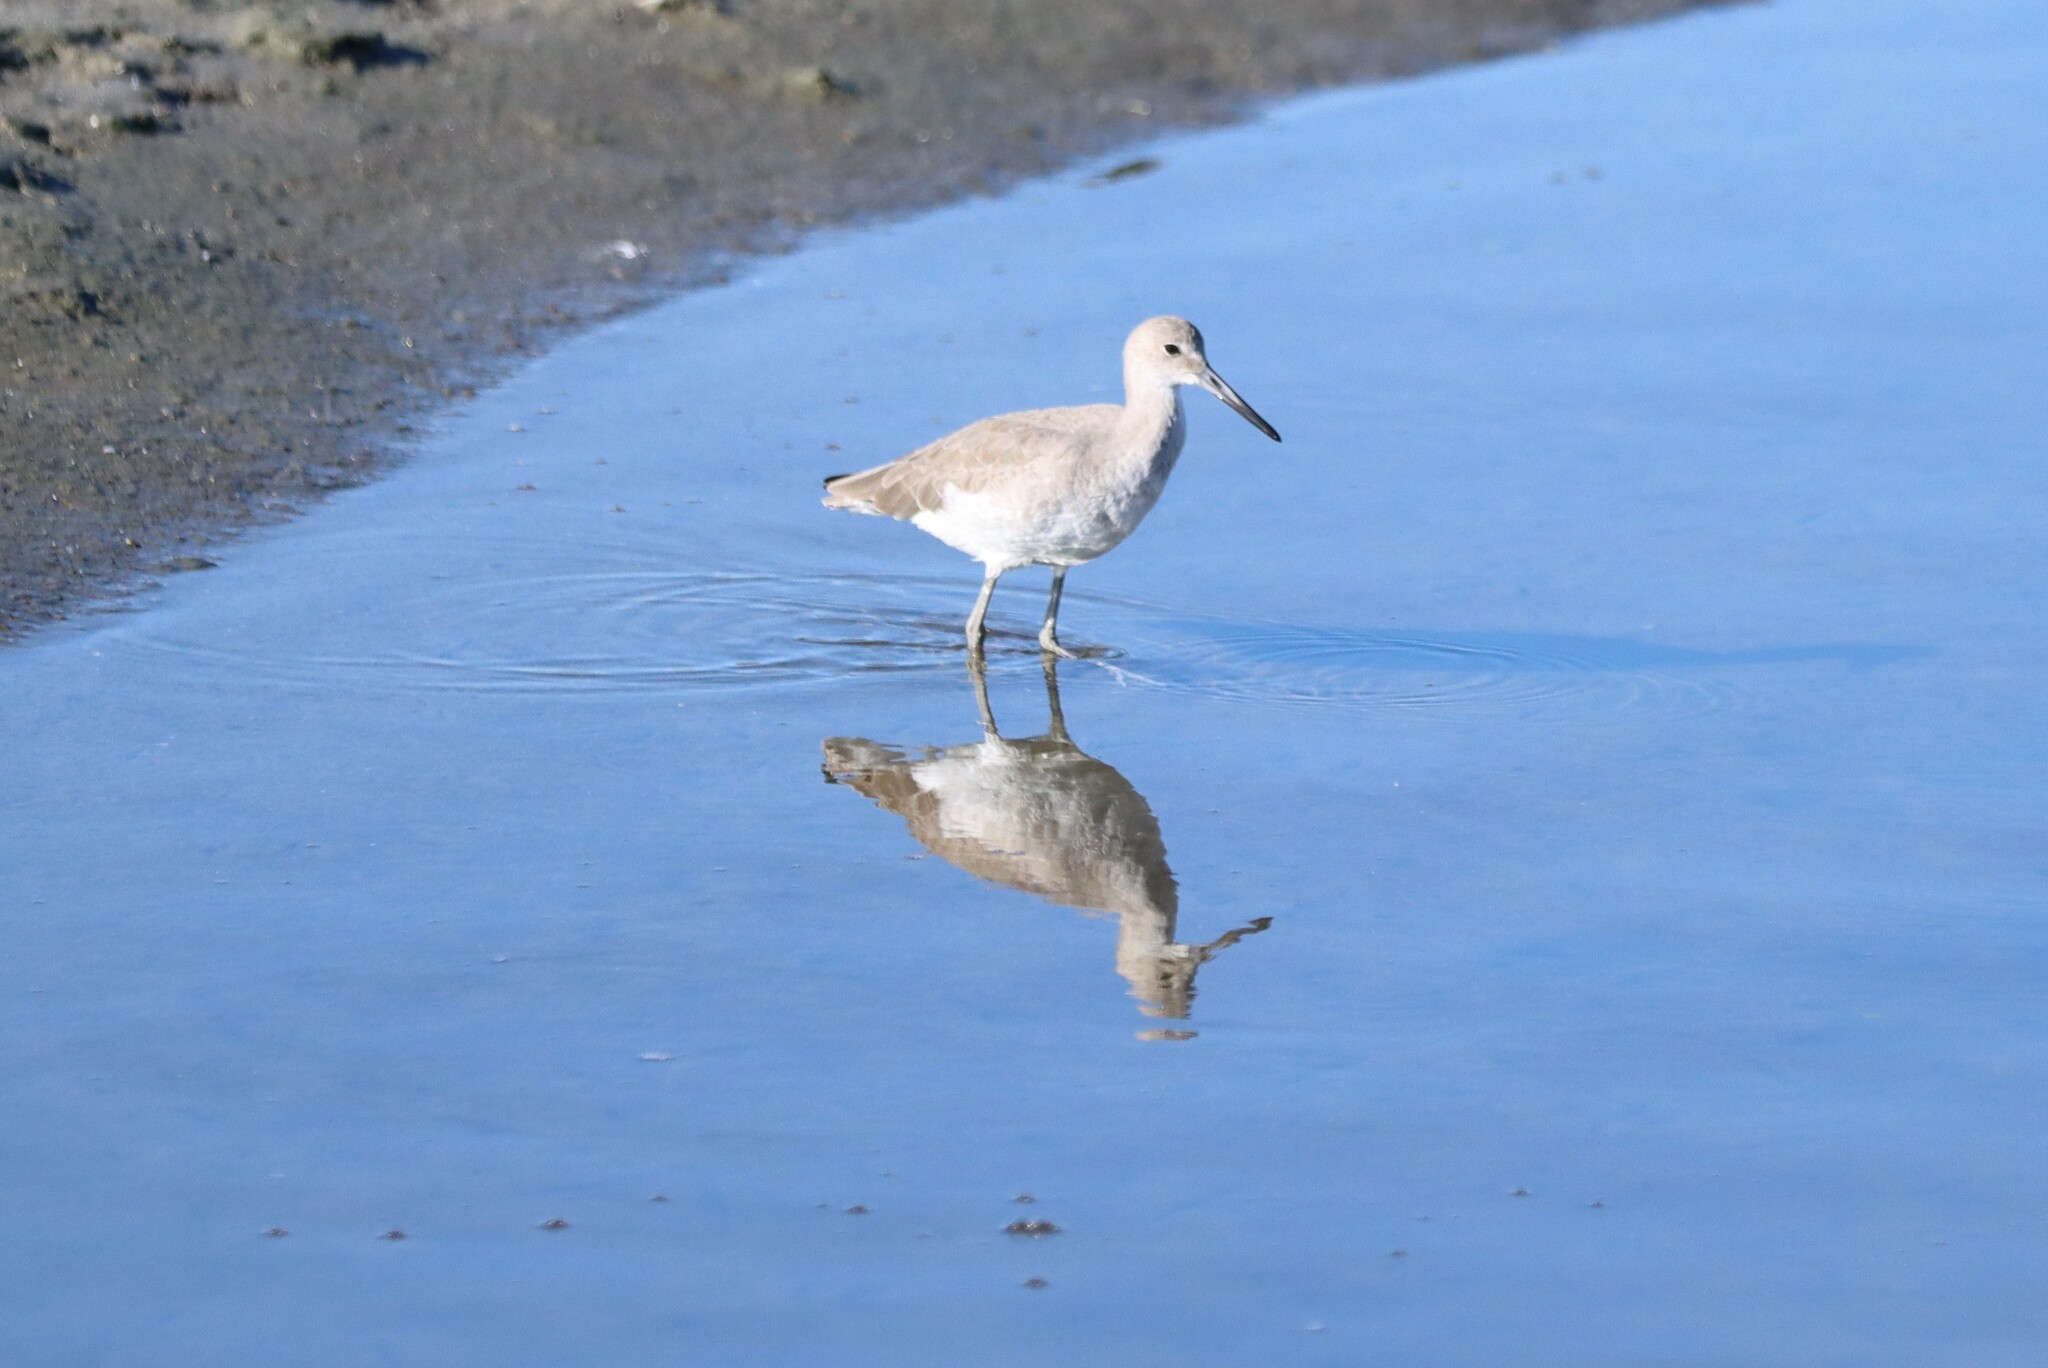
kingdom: Animalia
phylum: Chordata
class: Aves
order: Charadriiformes
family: Scolopacidae
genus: Tringa
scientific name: Tringa semipalmata
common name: Willet
